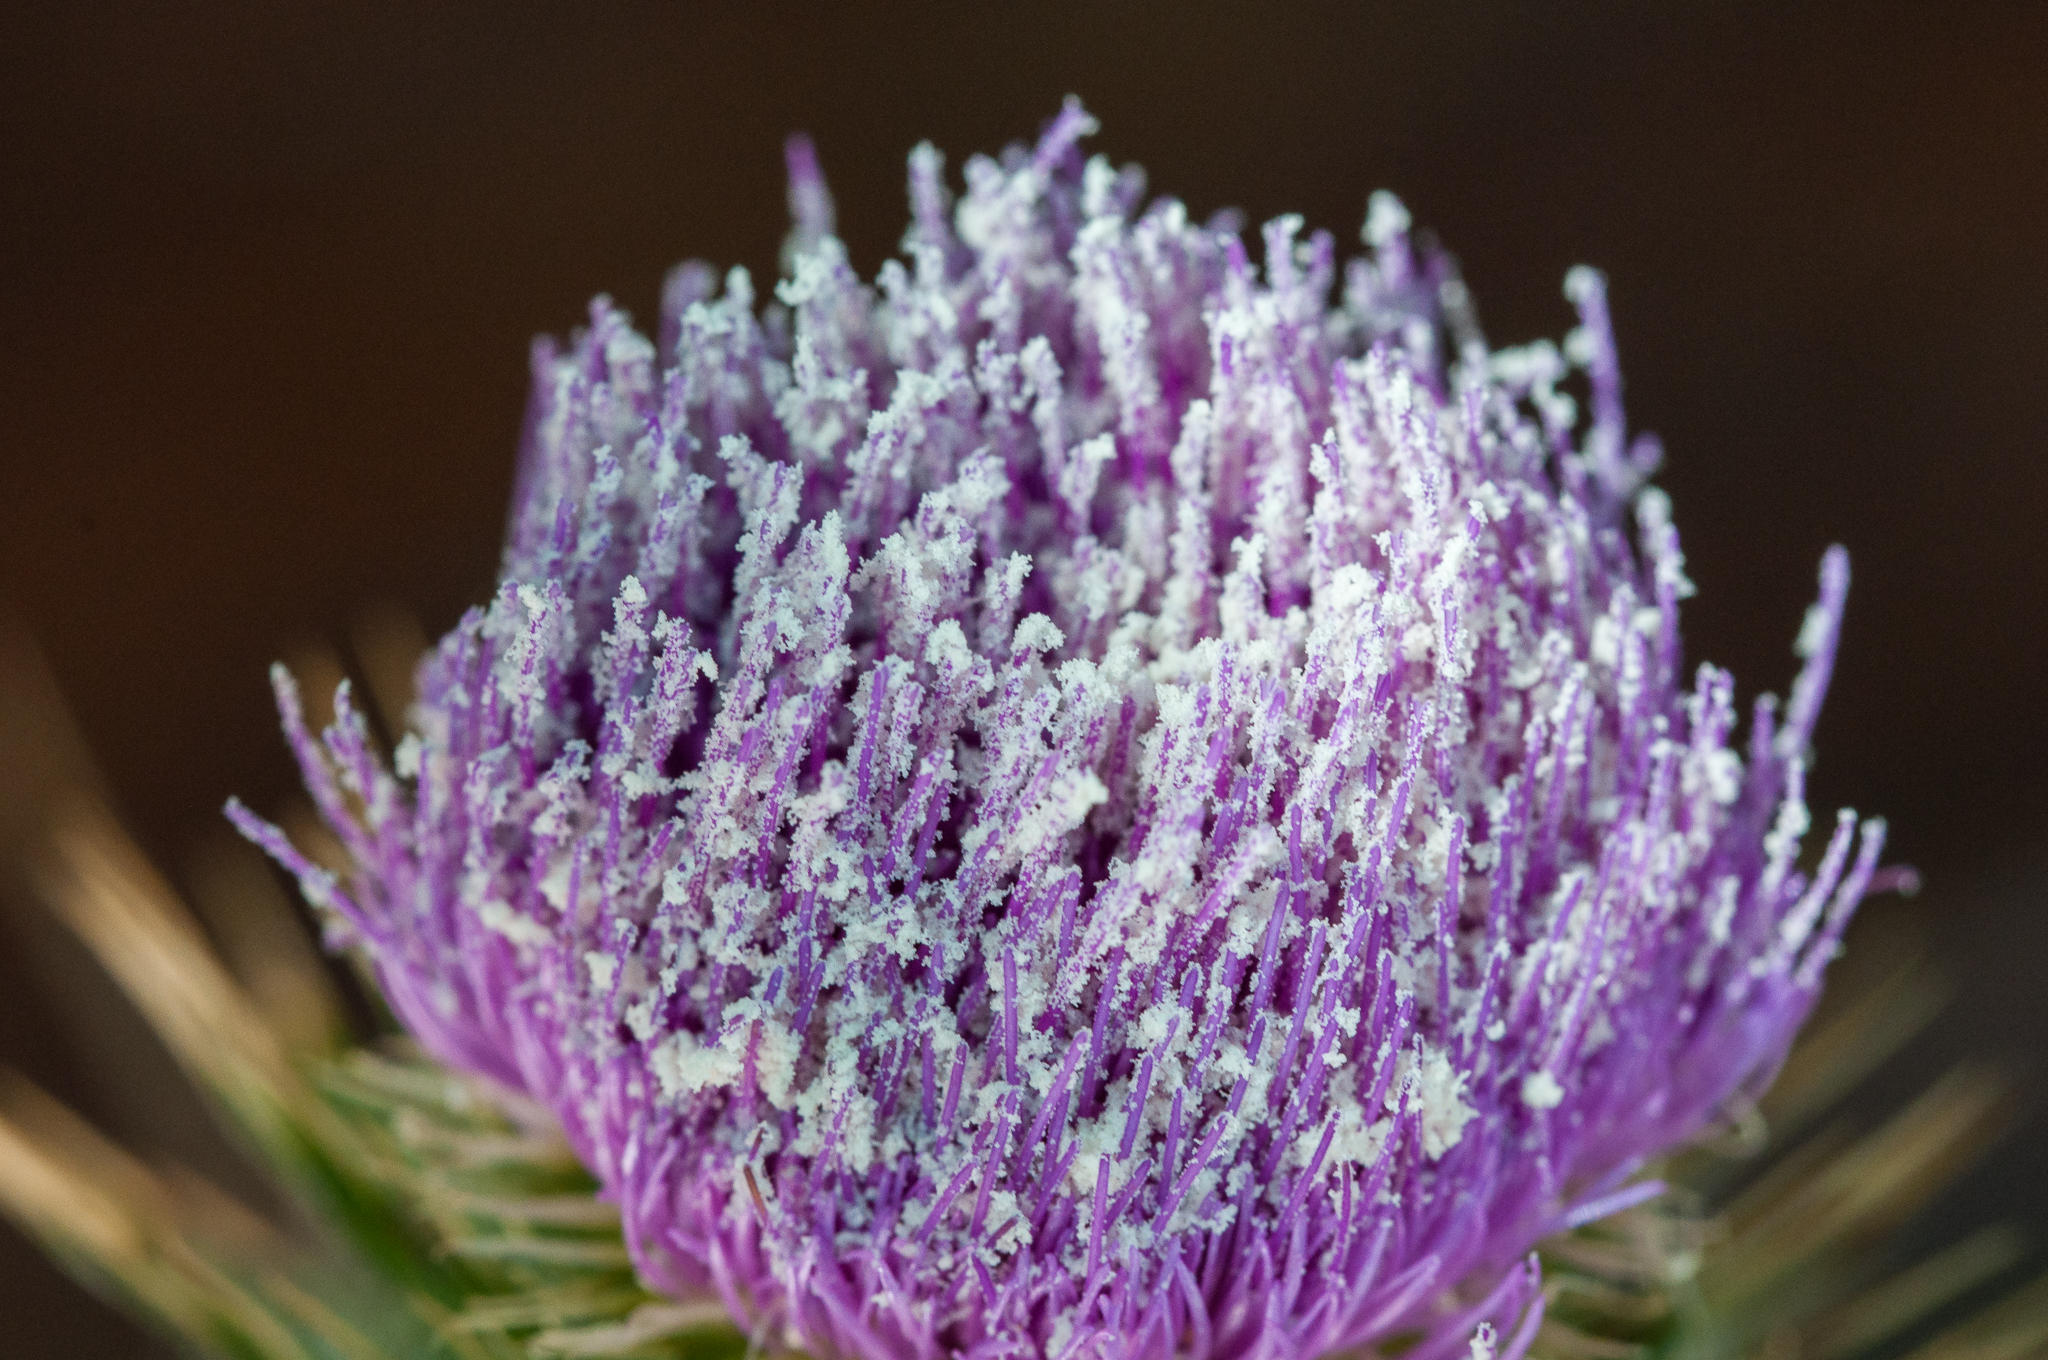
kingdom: Plantae
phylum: Tracheophyta
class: Magnoliopsida
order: Asterales
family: Asteraceae
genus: Cirsium
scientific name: Cirsium vulgare
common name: Bull thistle
